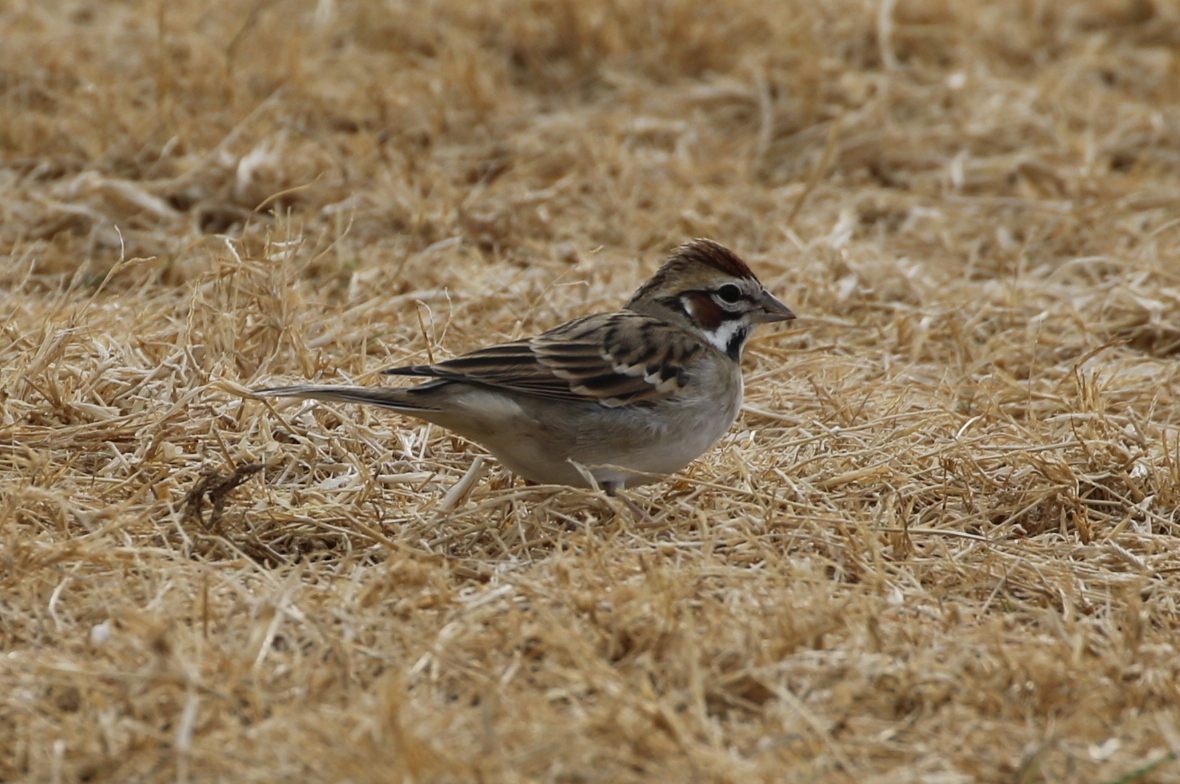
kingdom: Animalia
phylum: Chordata
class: Aves
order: Passeriformes
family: Passerellidae
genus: Chondestes
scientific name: Chondestes grammacus
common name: Lark sparrow
